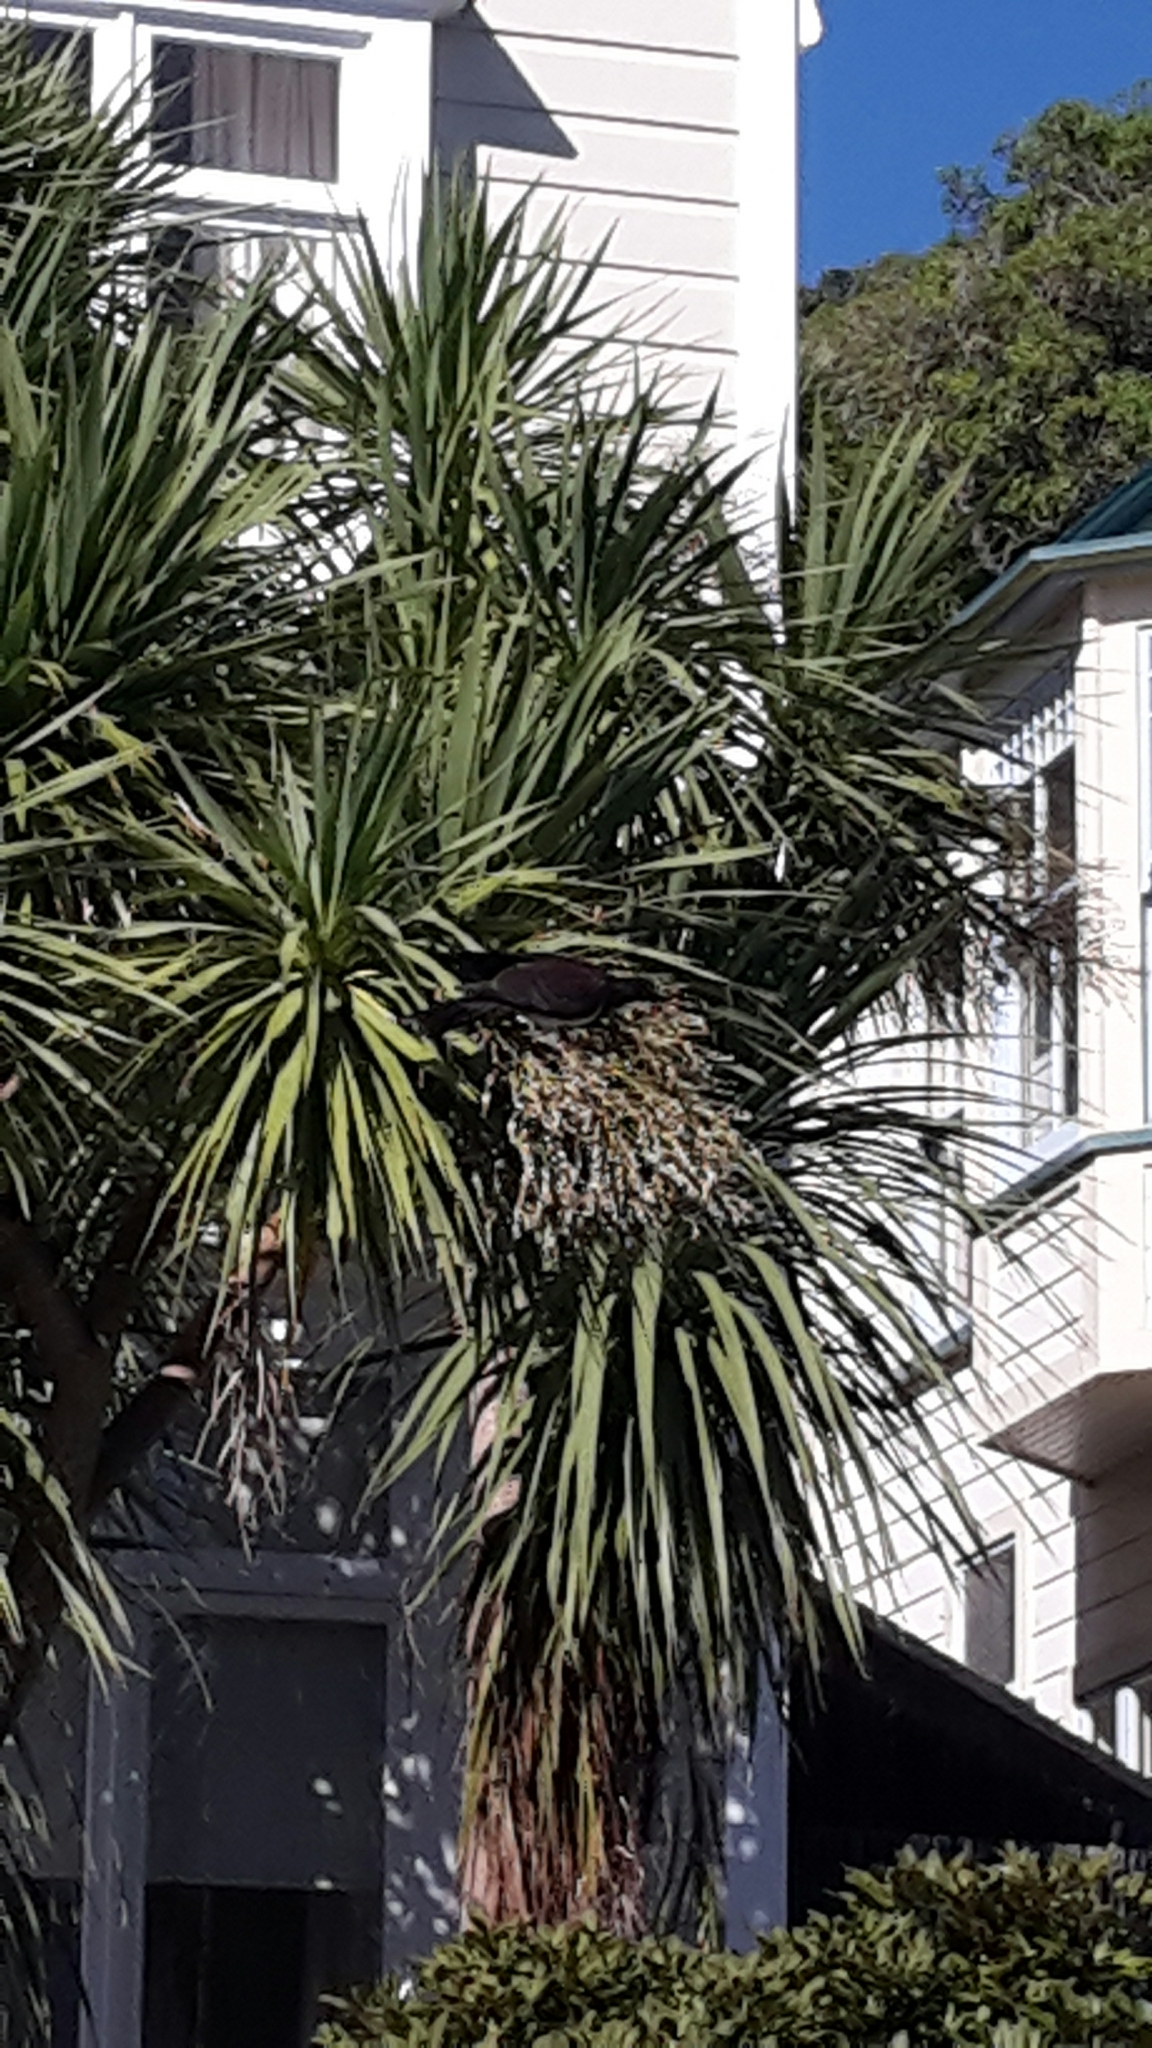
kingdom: Animalia
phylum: Chordata
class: Aves
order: Columbiformes
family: Columbidae
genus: Hemiphaga
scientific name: Hemiphaga novaeseelandiae
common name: New zealand pigeon
